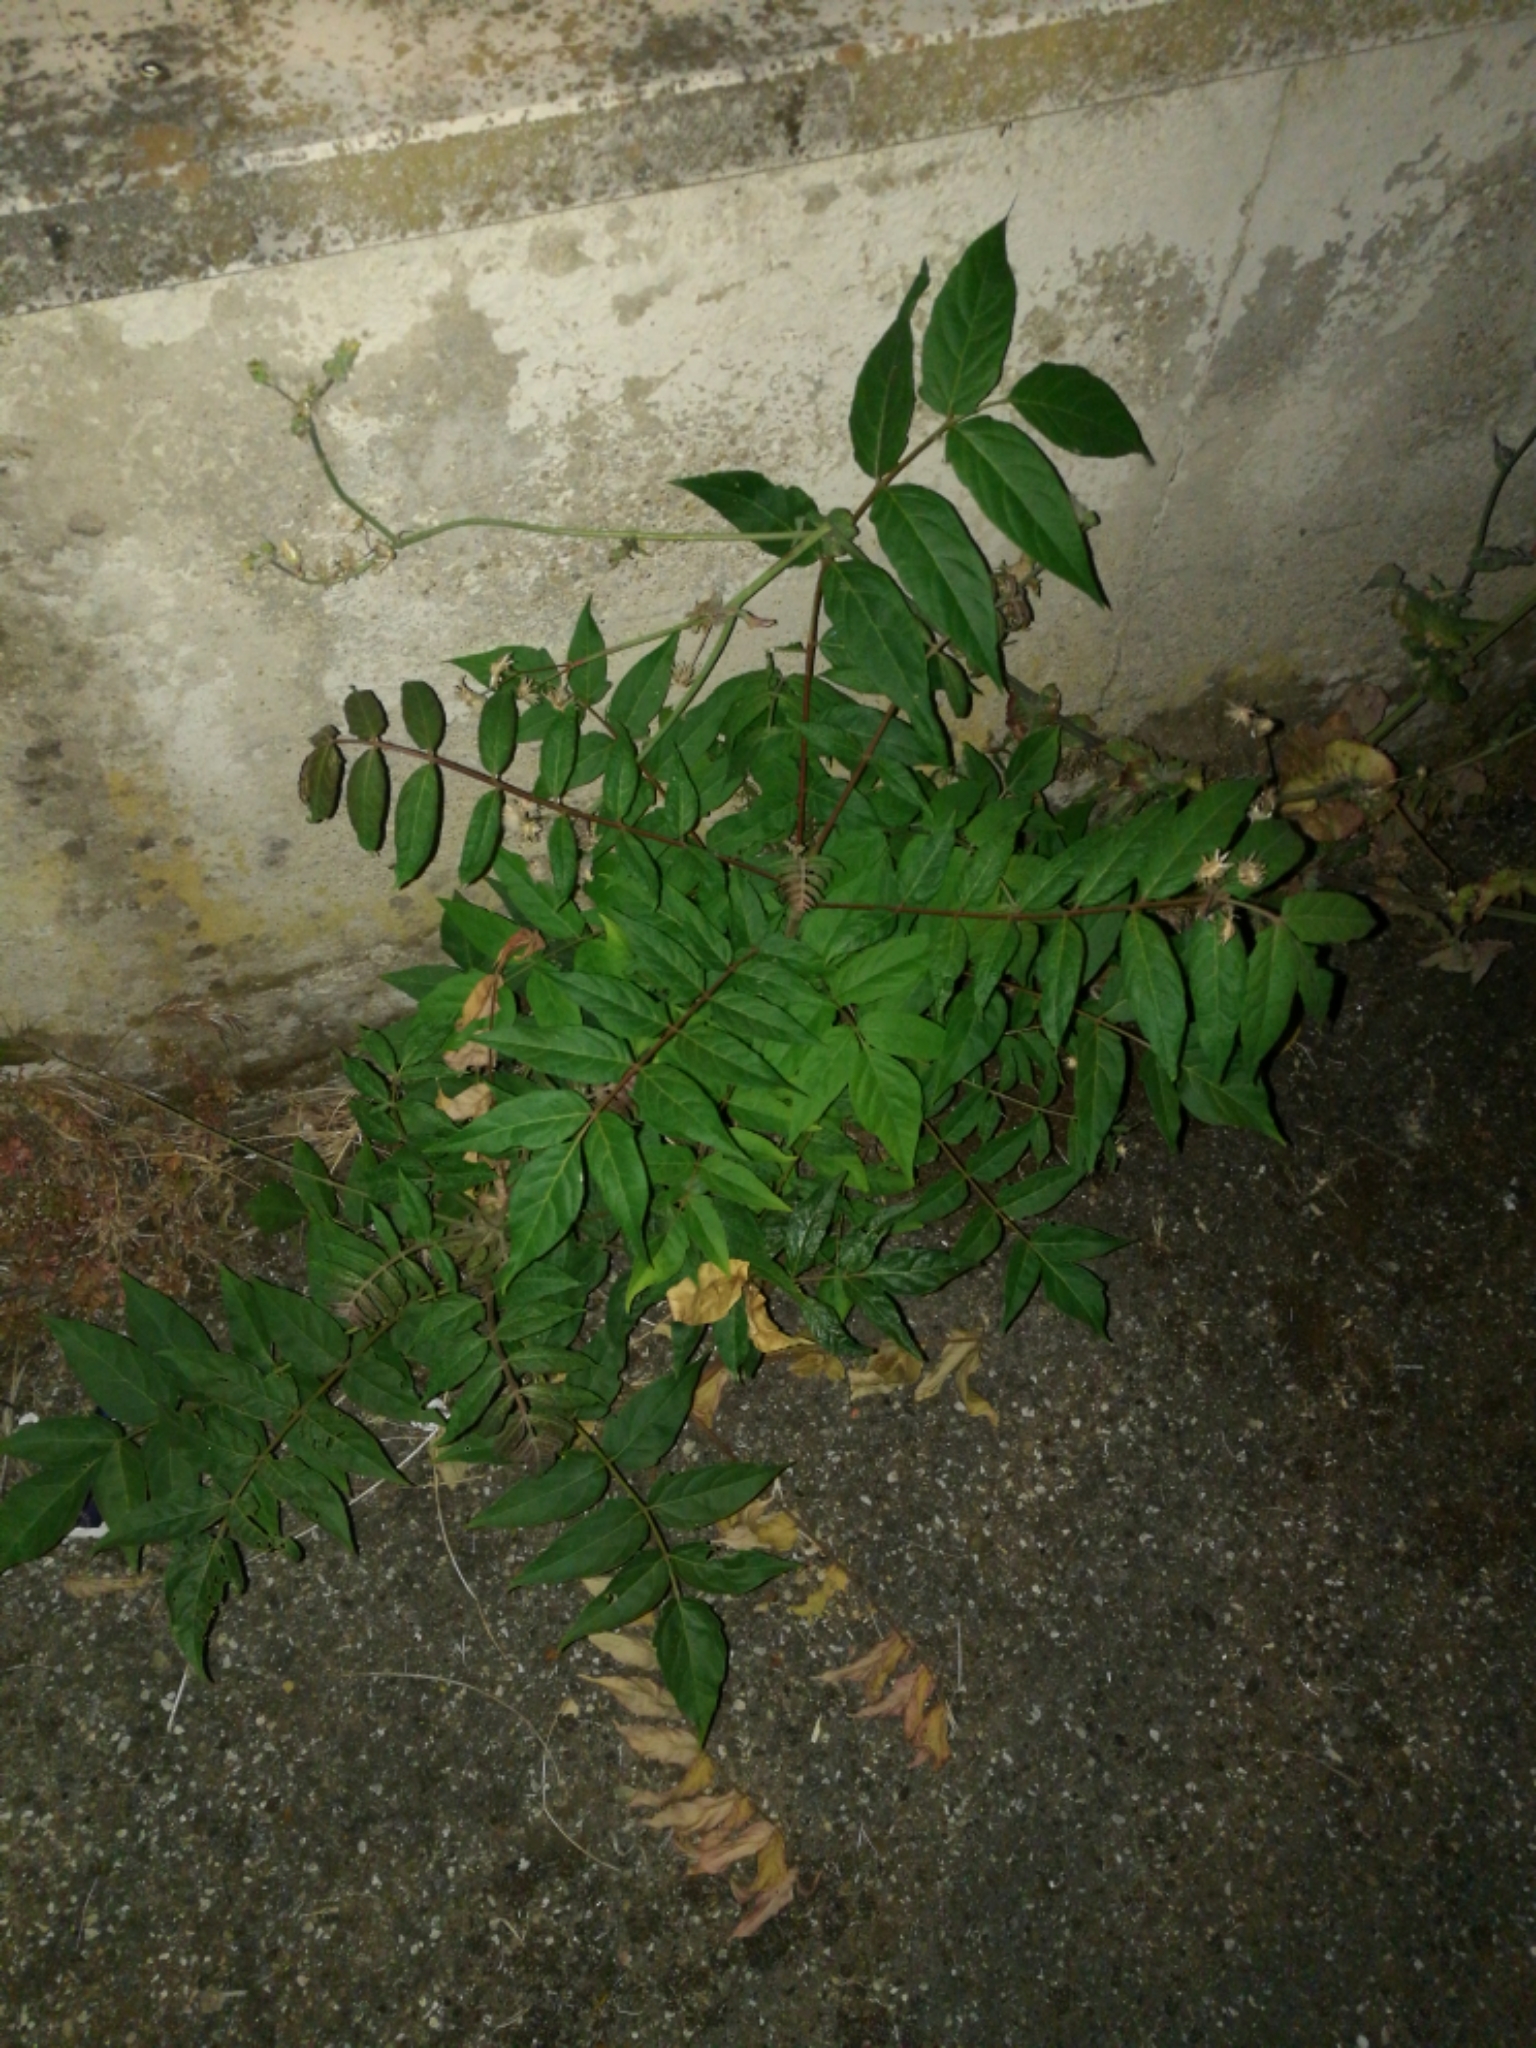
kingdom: Plantae
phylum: Tracheophyta
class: Magnoliopsida
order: Sapindales
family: Simaroubaceae
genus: Ailanthus
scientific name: Ailanthus altissima
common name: Tree-of-heaven
